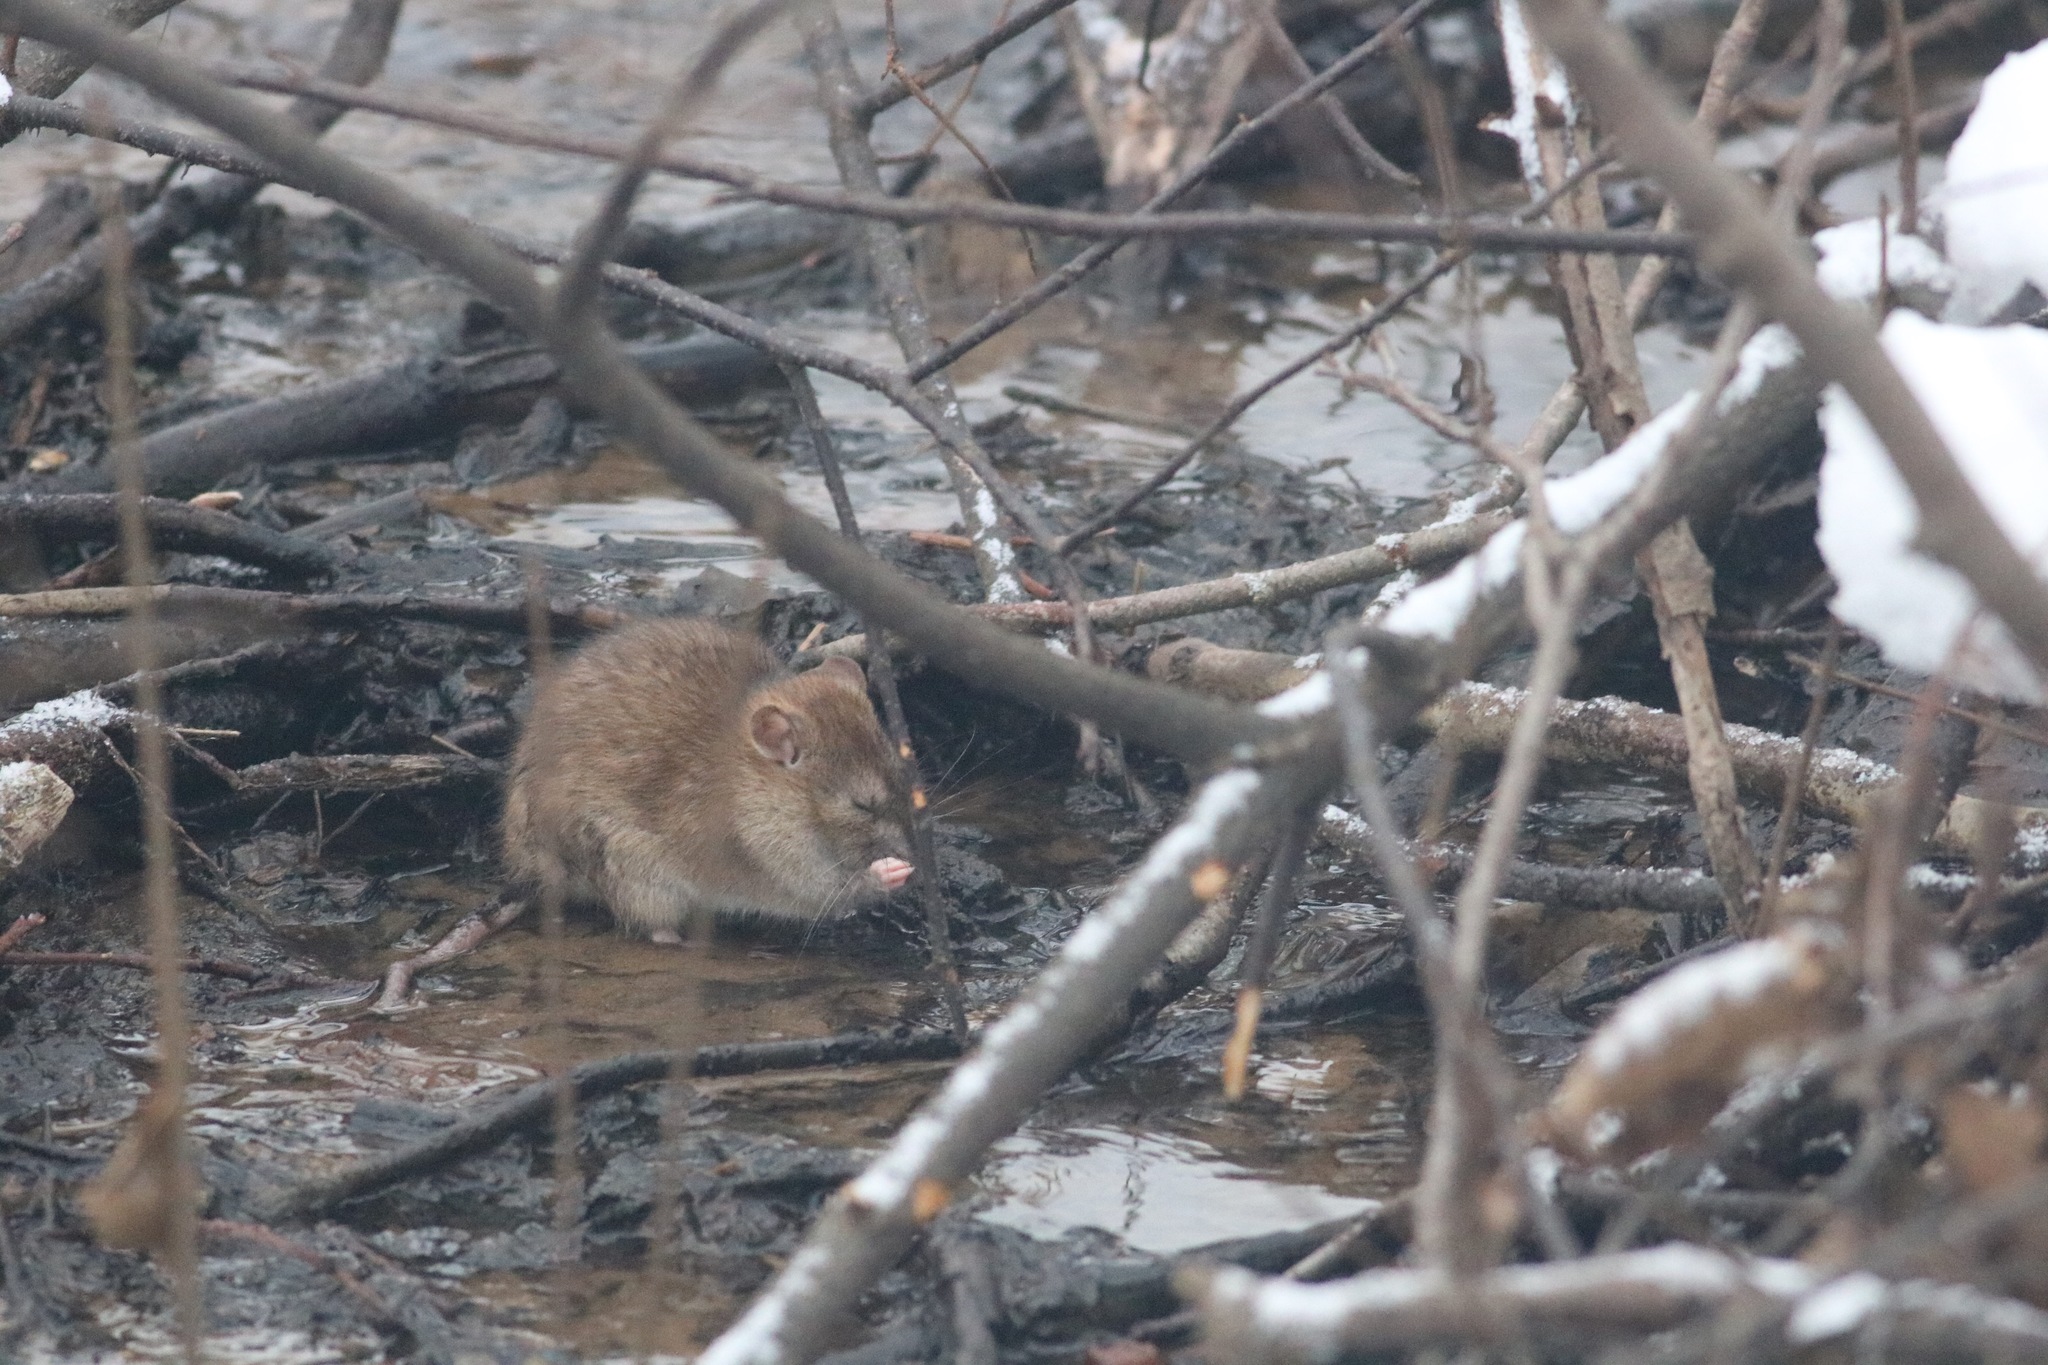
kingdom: Animalia
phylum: Chordata
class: Mammalia
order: Rodentia
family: Muridae
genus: Rattus
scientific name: Rattus norvegicus
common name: Brown rat
